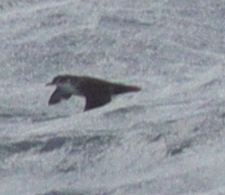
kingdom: Animalia
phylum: Chordata
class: Aves
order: Procellariiformes
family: Procellariidae
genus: Puffinus
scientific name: Puffinus boydi
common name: Boyd's shearwater
